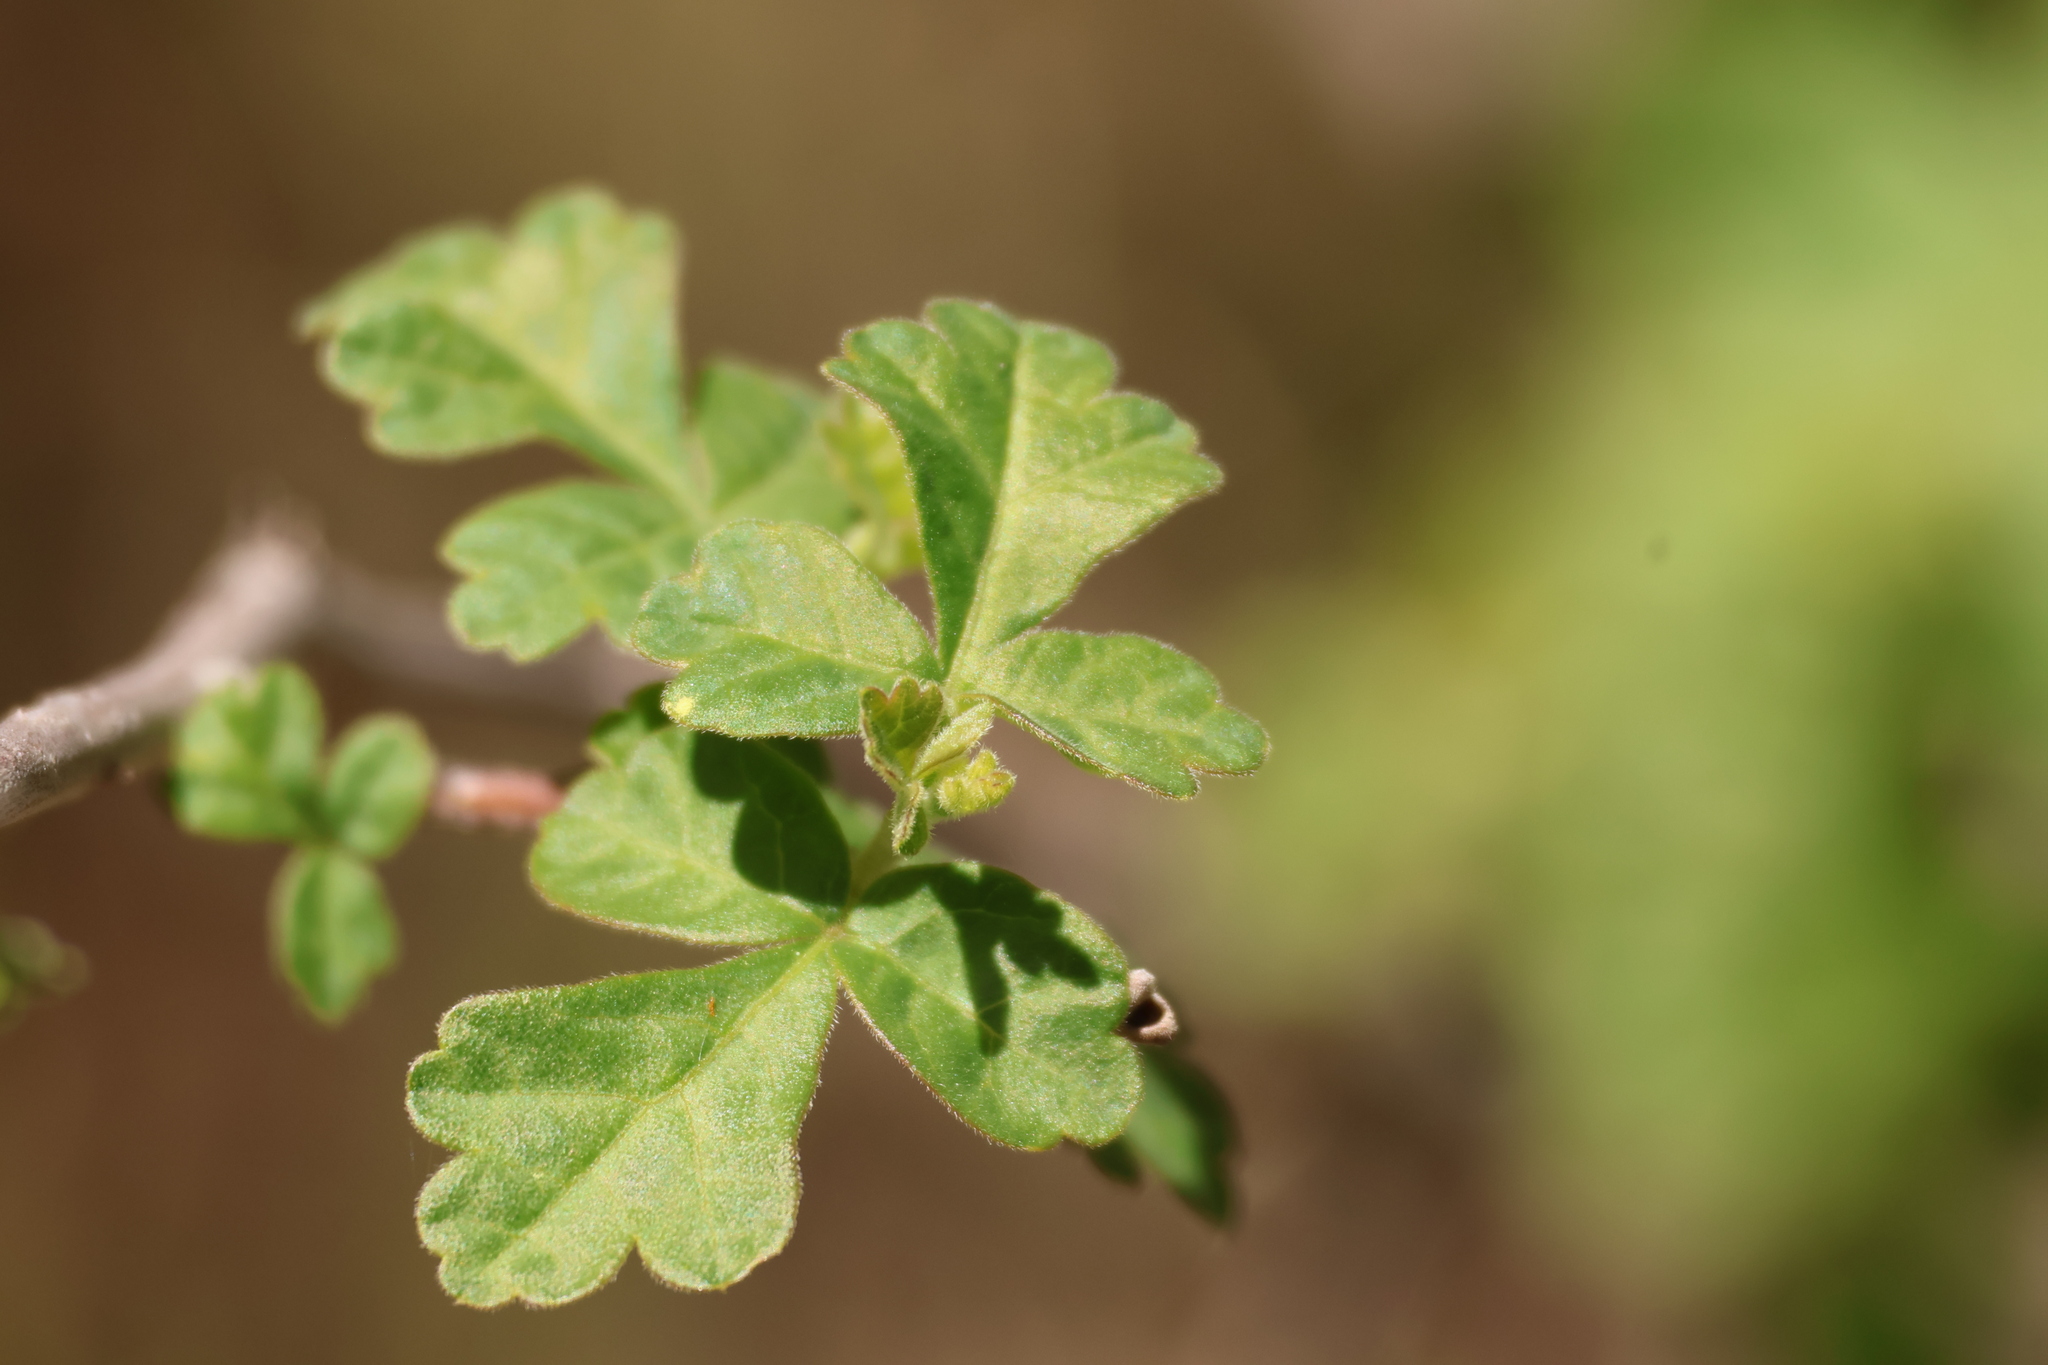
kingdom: Plantae
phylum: Tracheophyta
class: Magnoliopsida
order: Sapindales
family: Anacardiaceae
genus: Rhus
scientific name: Rhus aromatica
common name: Aromatic sumac
